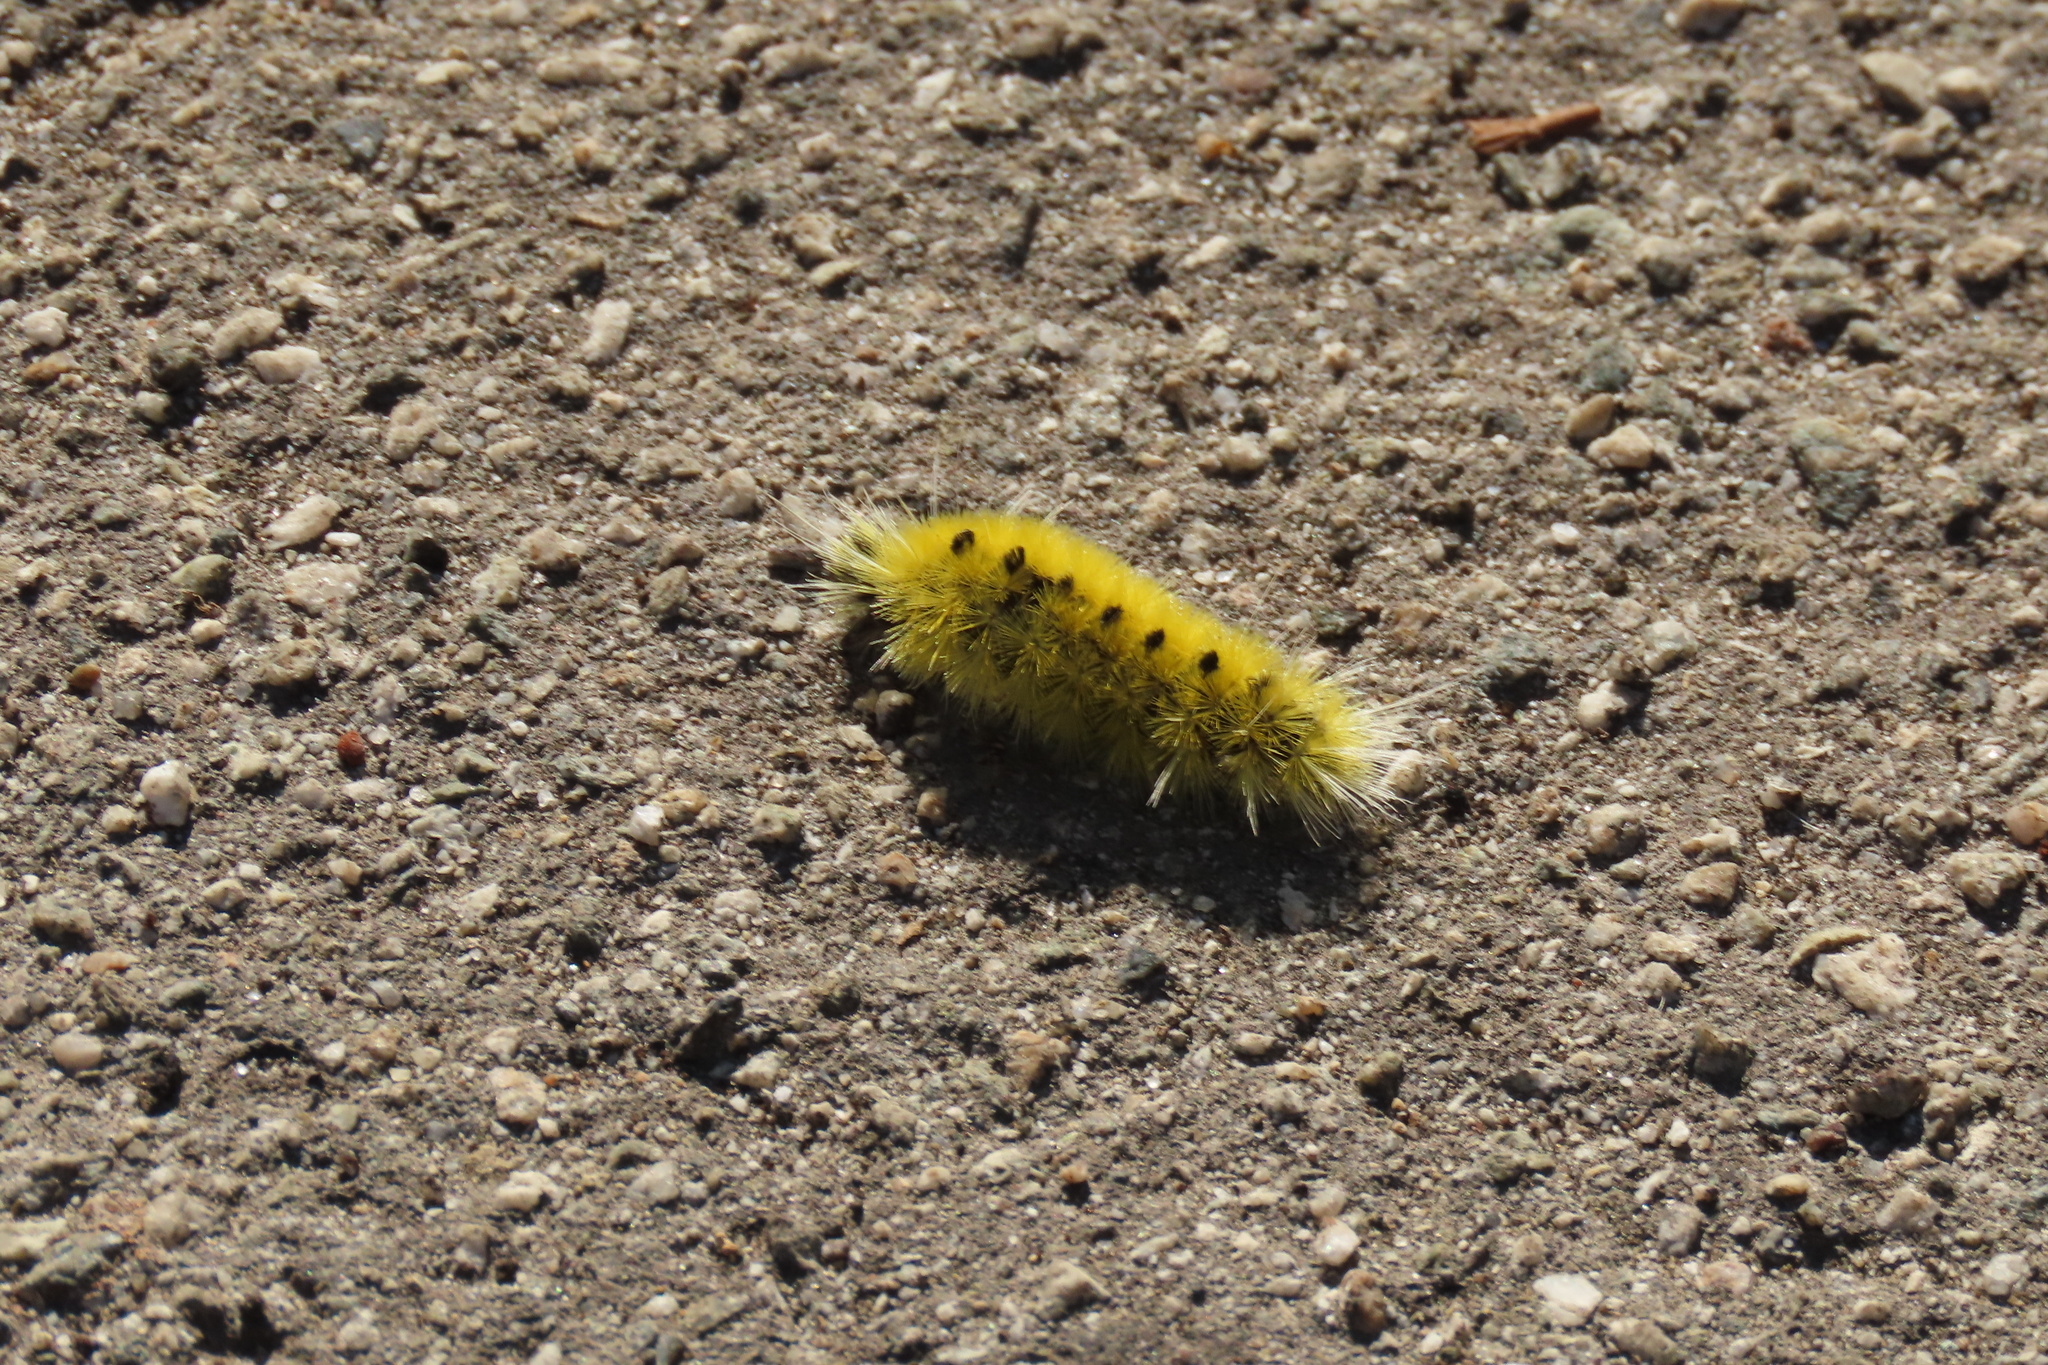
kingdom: Animalia
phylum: Arthropoda
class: Insecta
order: Lepidoptera
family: Erebidae
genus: Lophocampa
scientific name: Lophocampa maculata
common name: Spotted tussock moth
